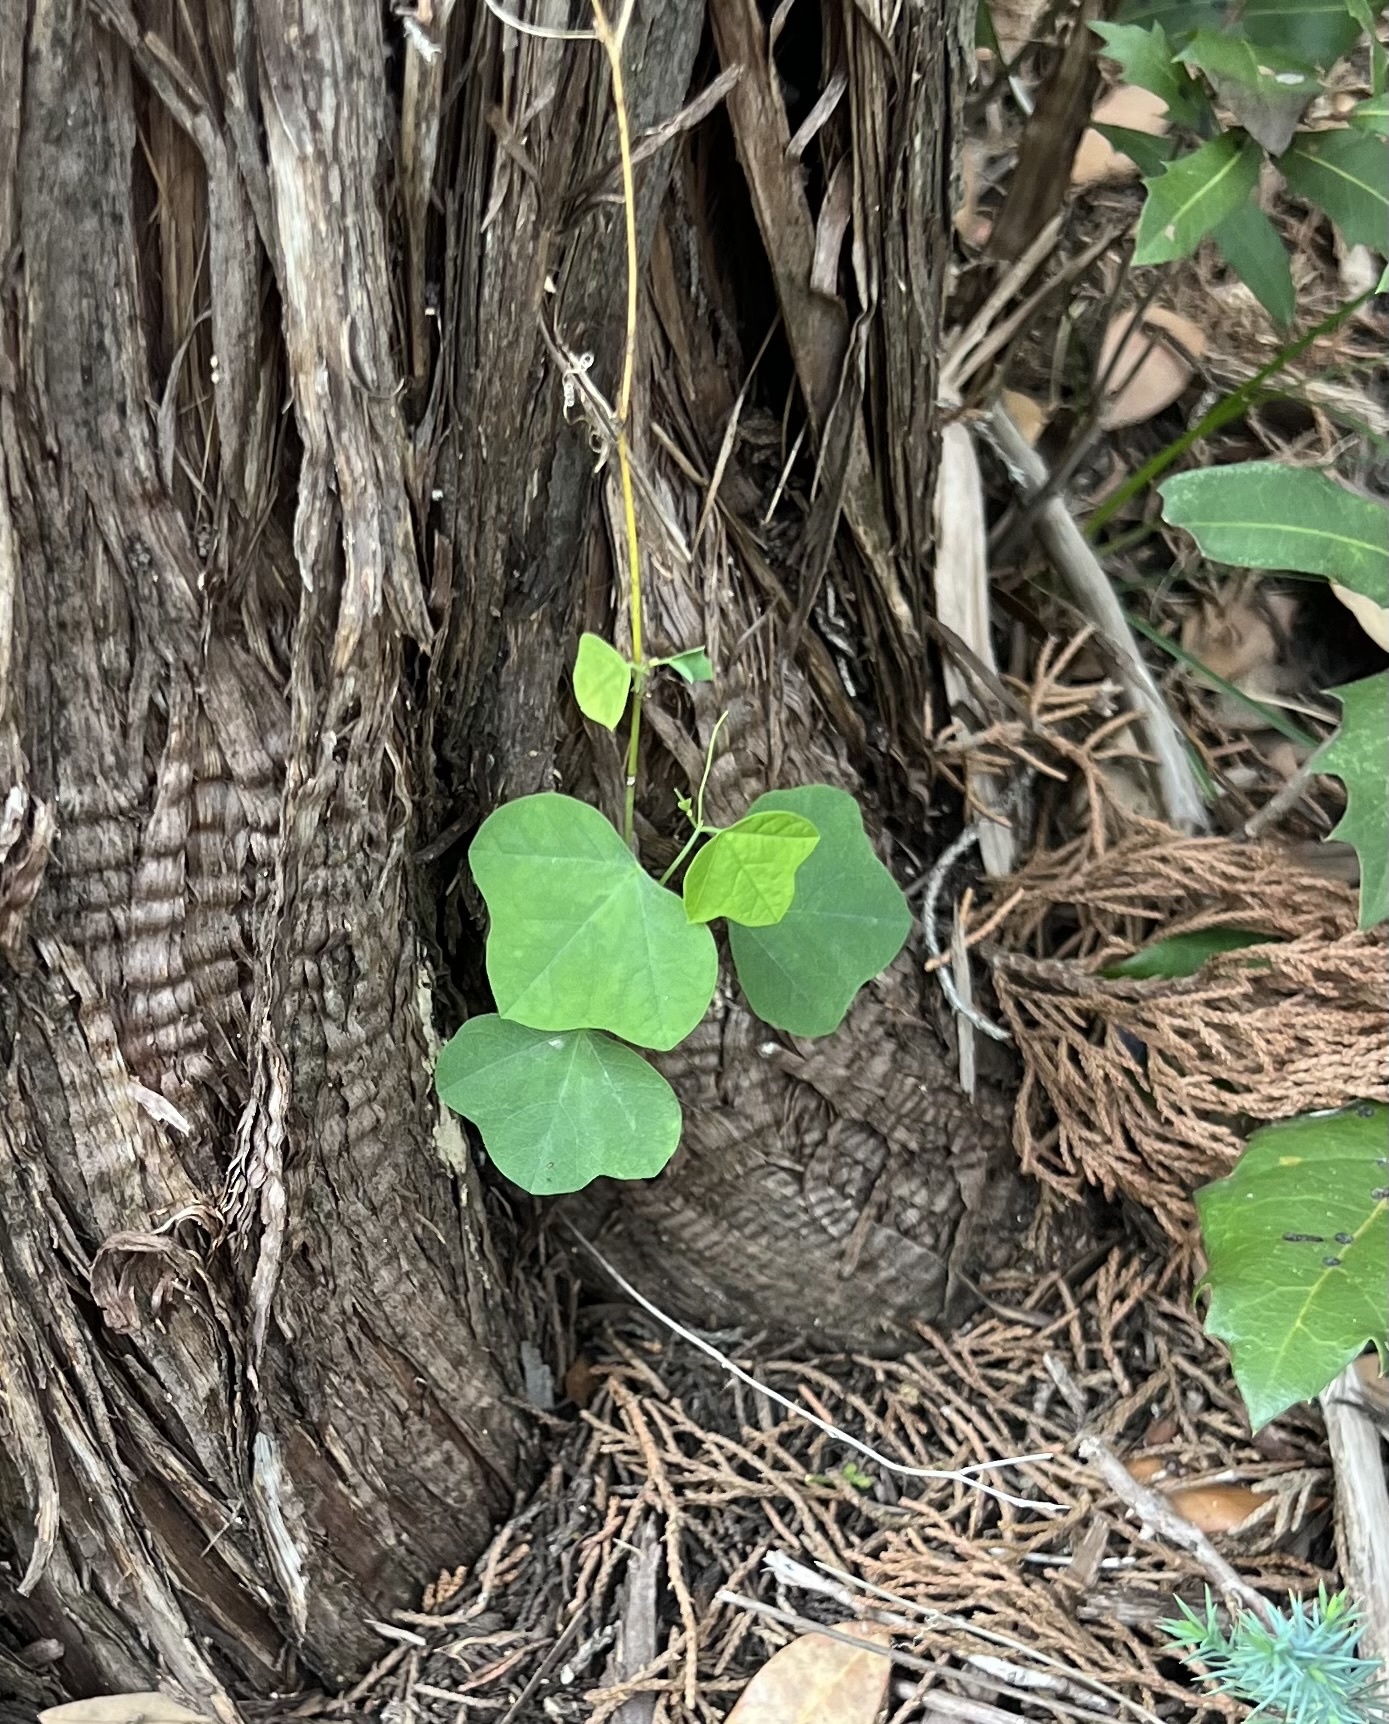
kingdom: Plantae
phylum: Tracheophyta
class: Magnoliopsida
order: Malpighiales
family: Passifloraceae
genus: Passiflora
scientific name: Passiflora lutea
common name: Yellow passionflower
